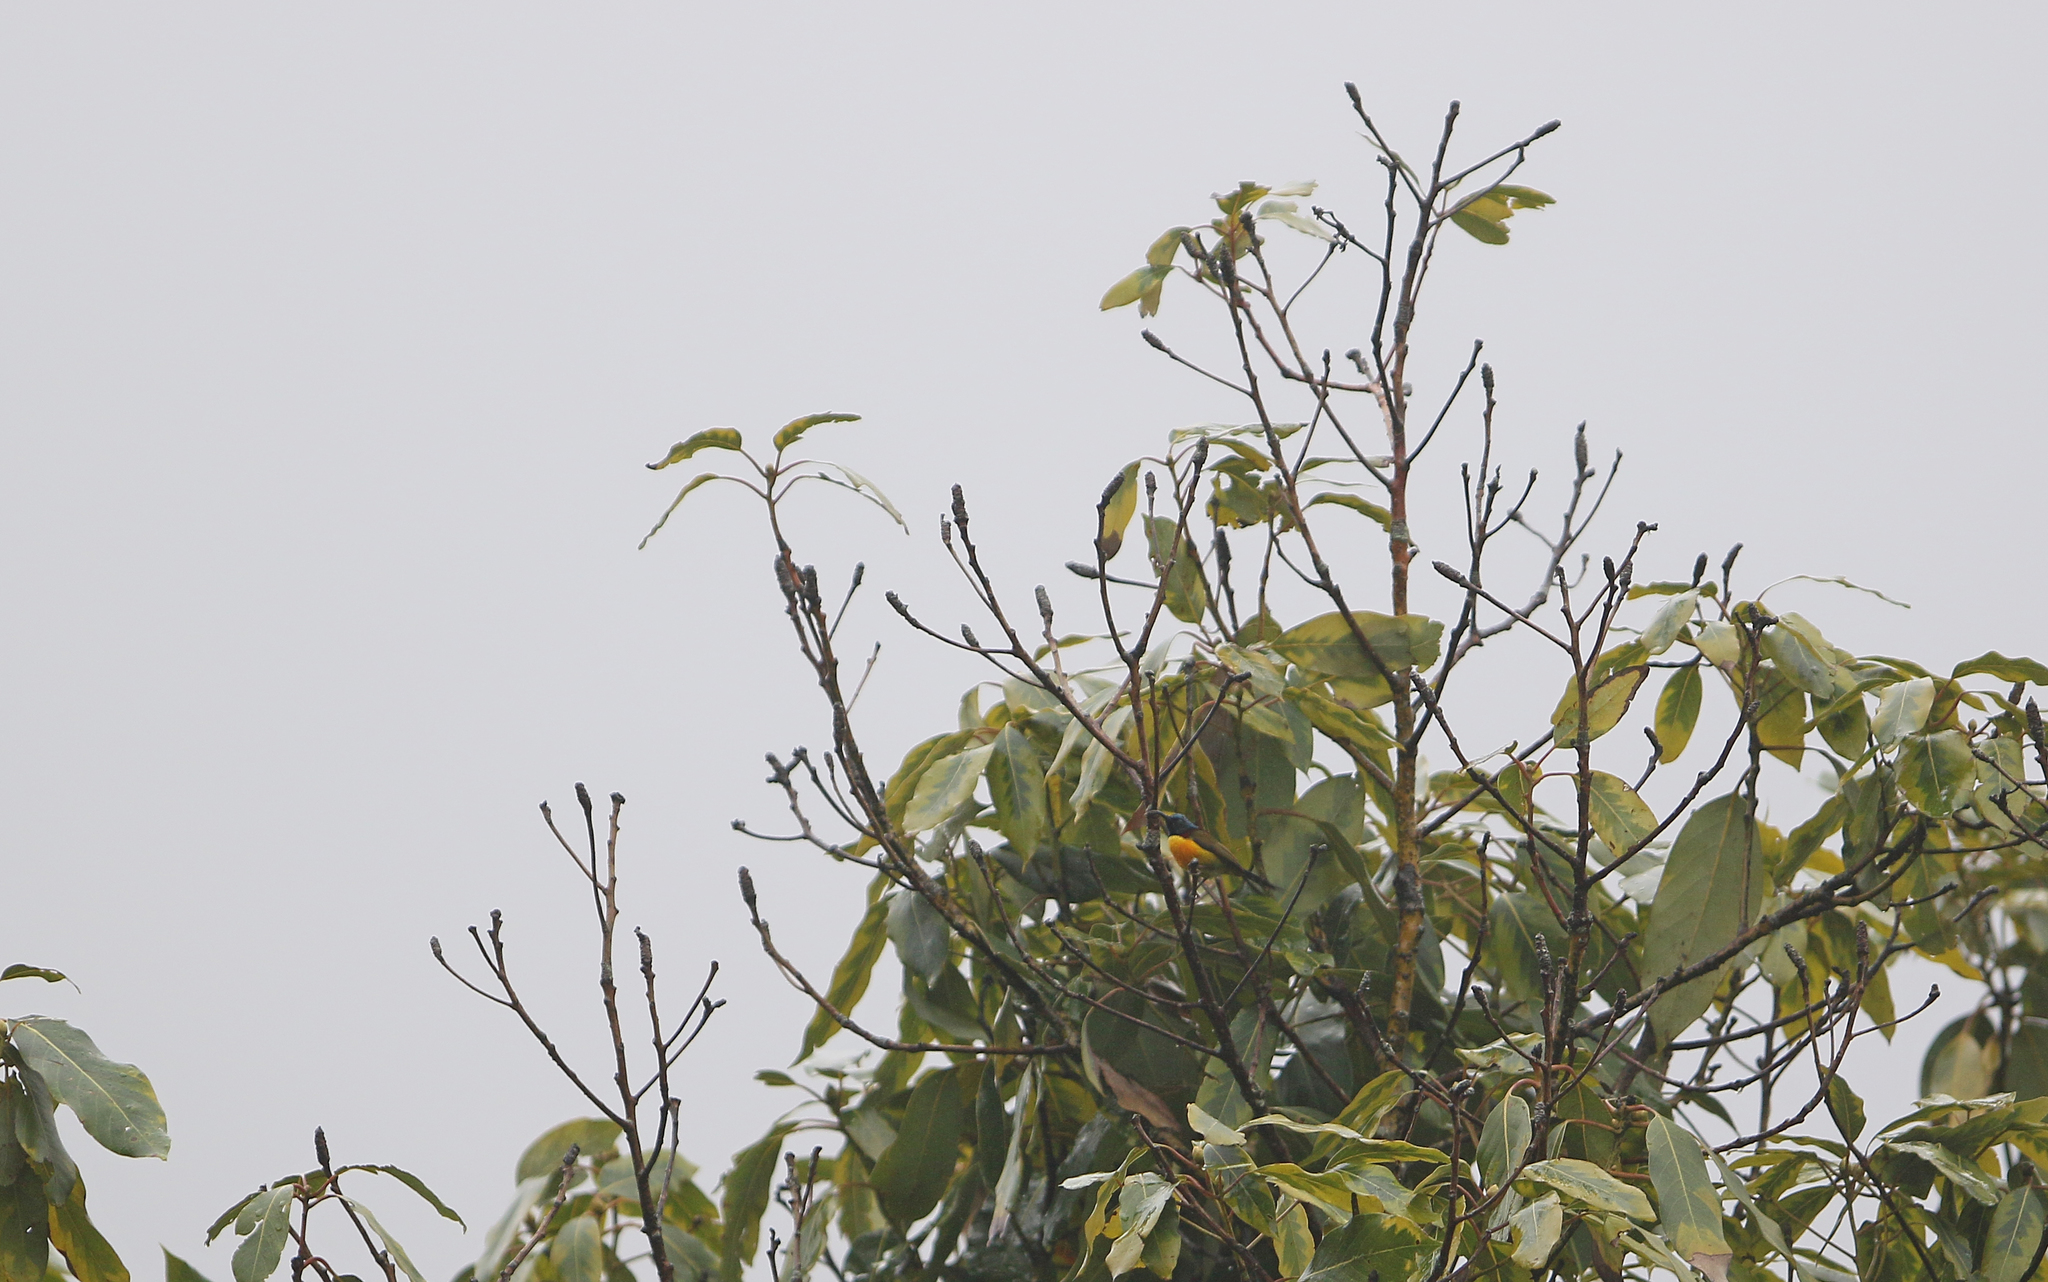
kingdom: Animalia
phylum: Chordata
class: Aves
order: Passeriformes
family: Nectariniidae
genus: Aethopyga
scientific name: Aethopyga nipalensis
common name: Green-tailed sunbird
